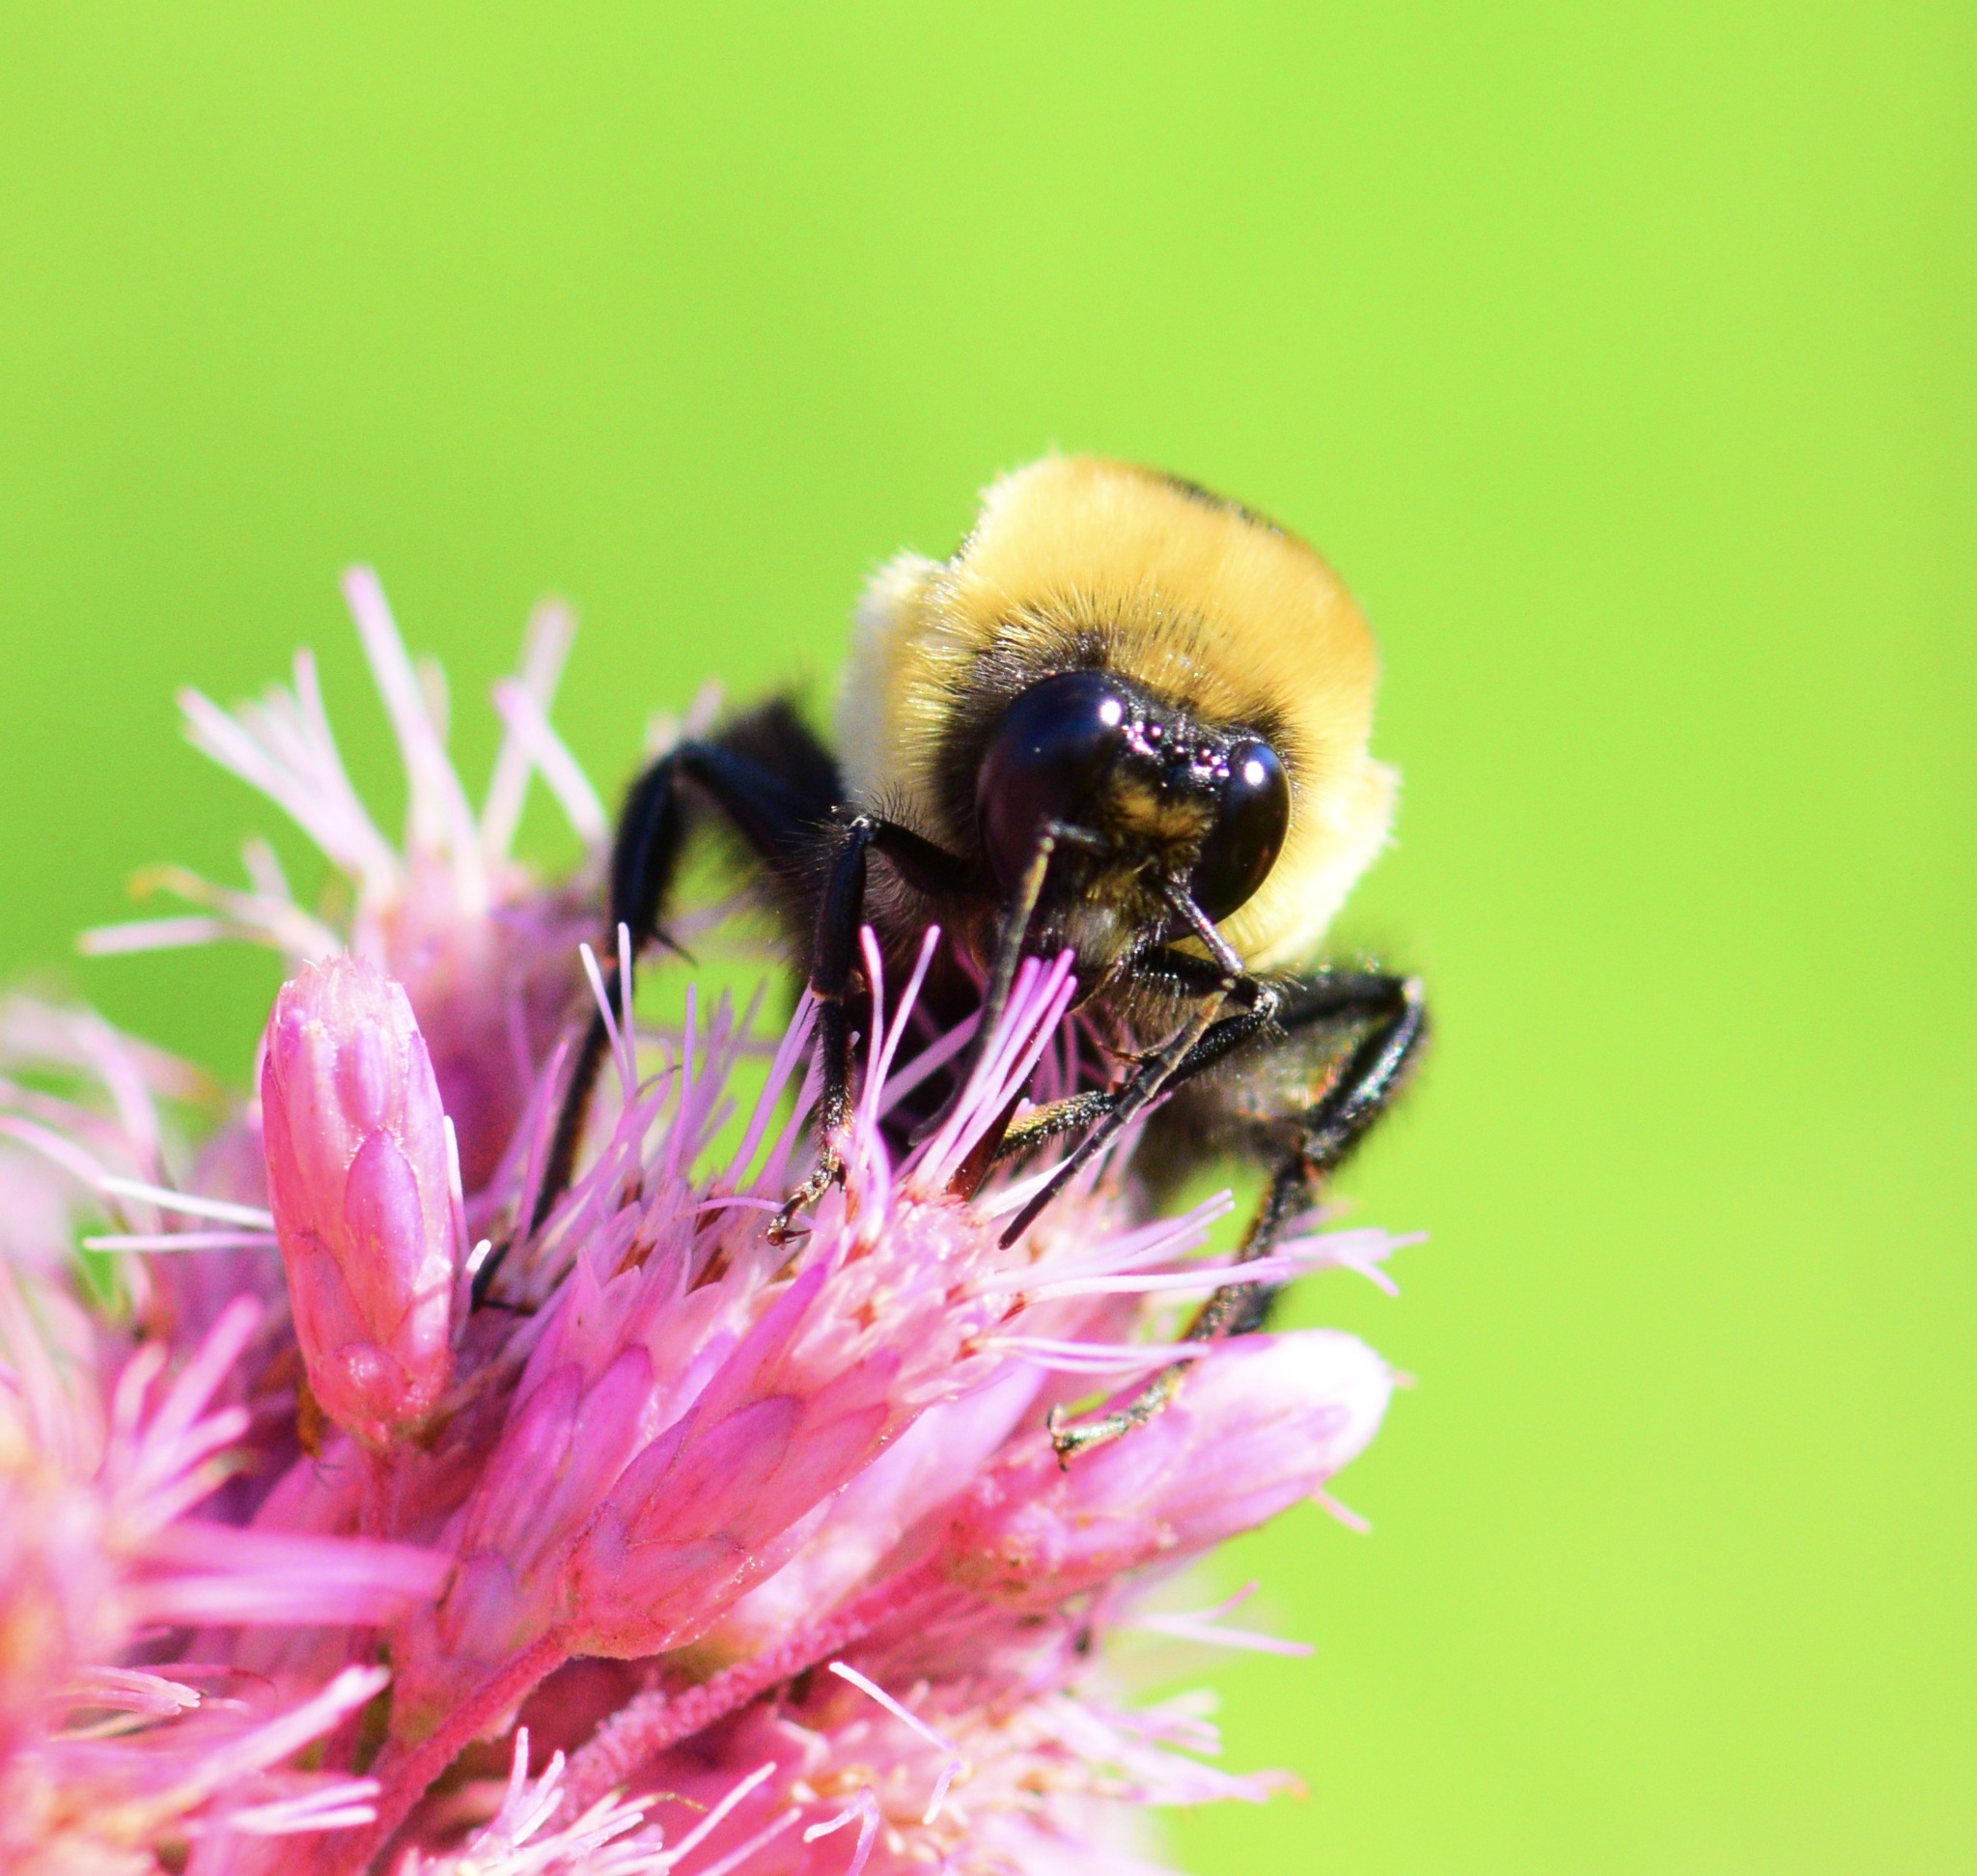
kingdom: Animalia
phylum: Arthropoda
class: Insecta
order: Hymenoptera
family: Apidae
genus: Bombus
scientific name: Bombus griseocollis
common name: Brown-belted bumble bee
